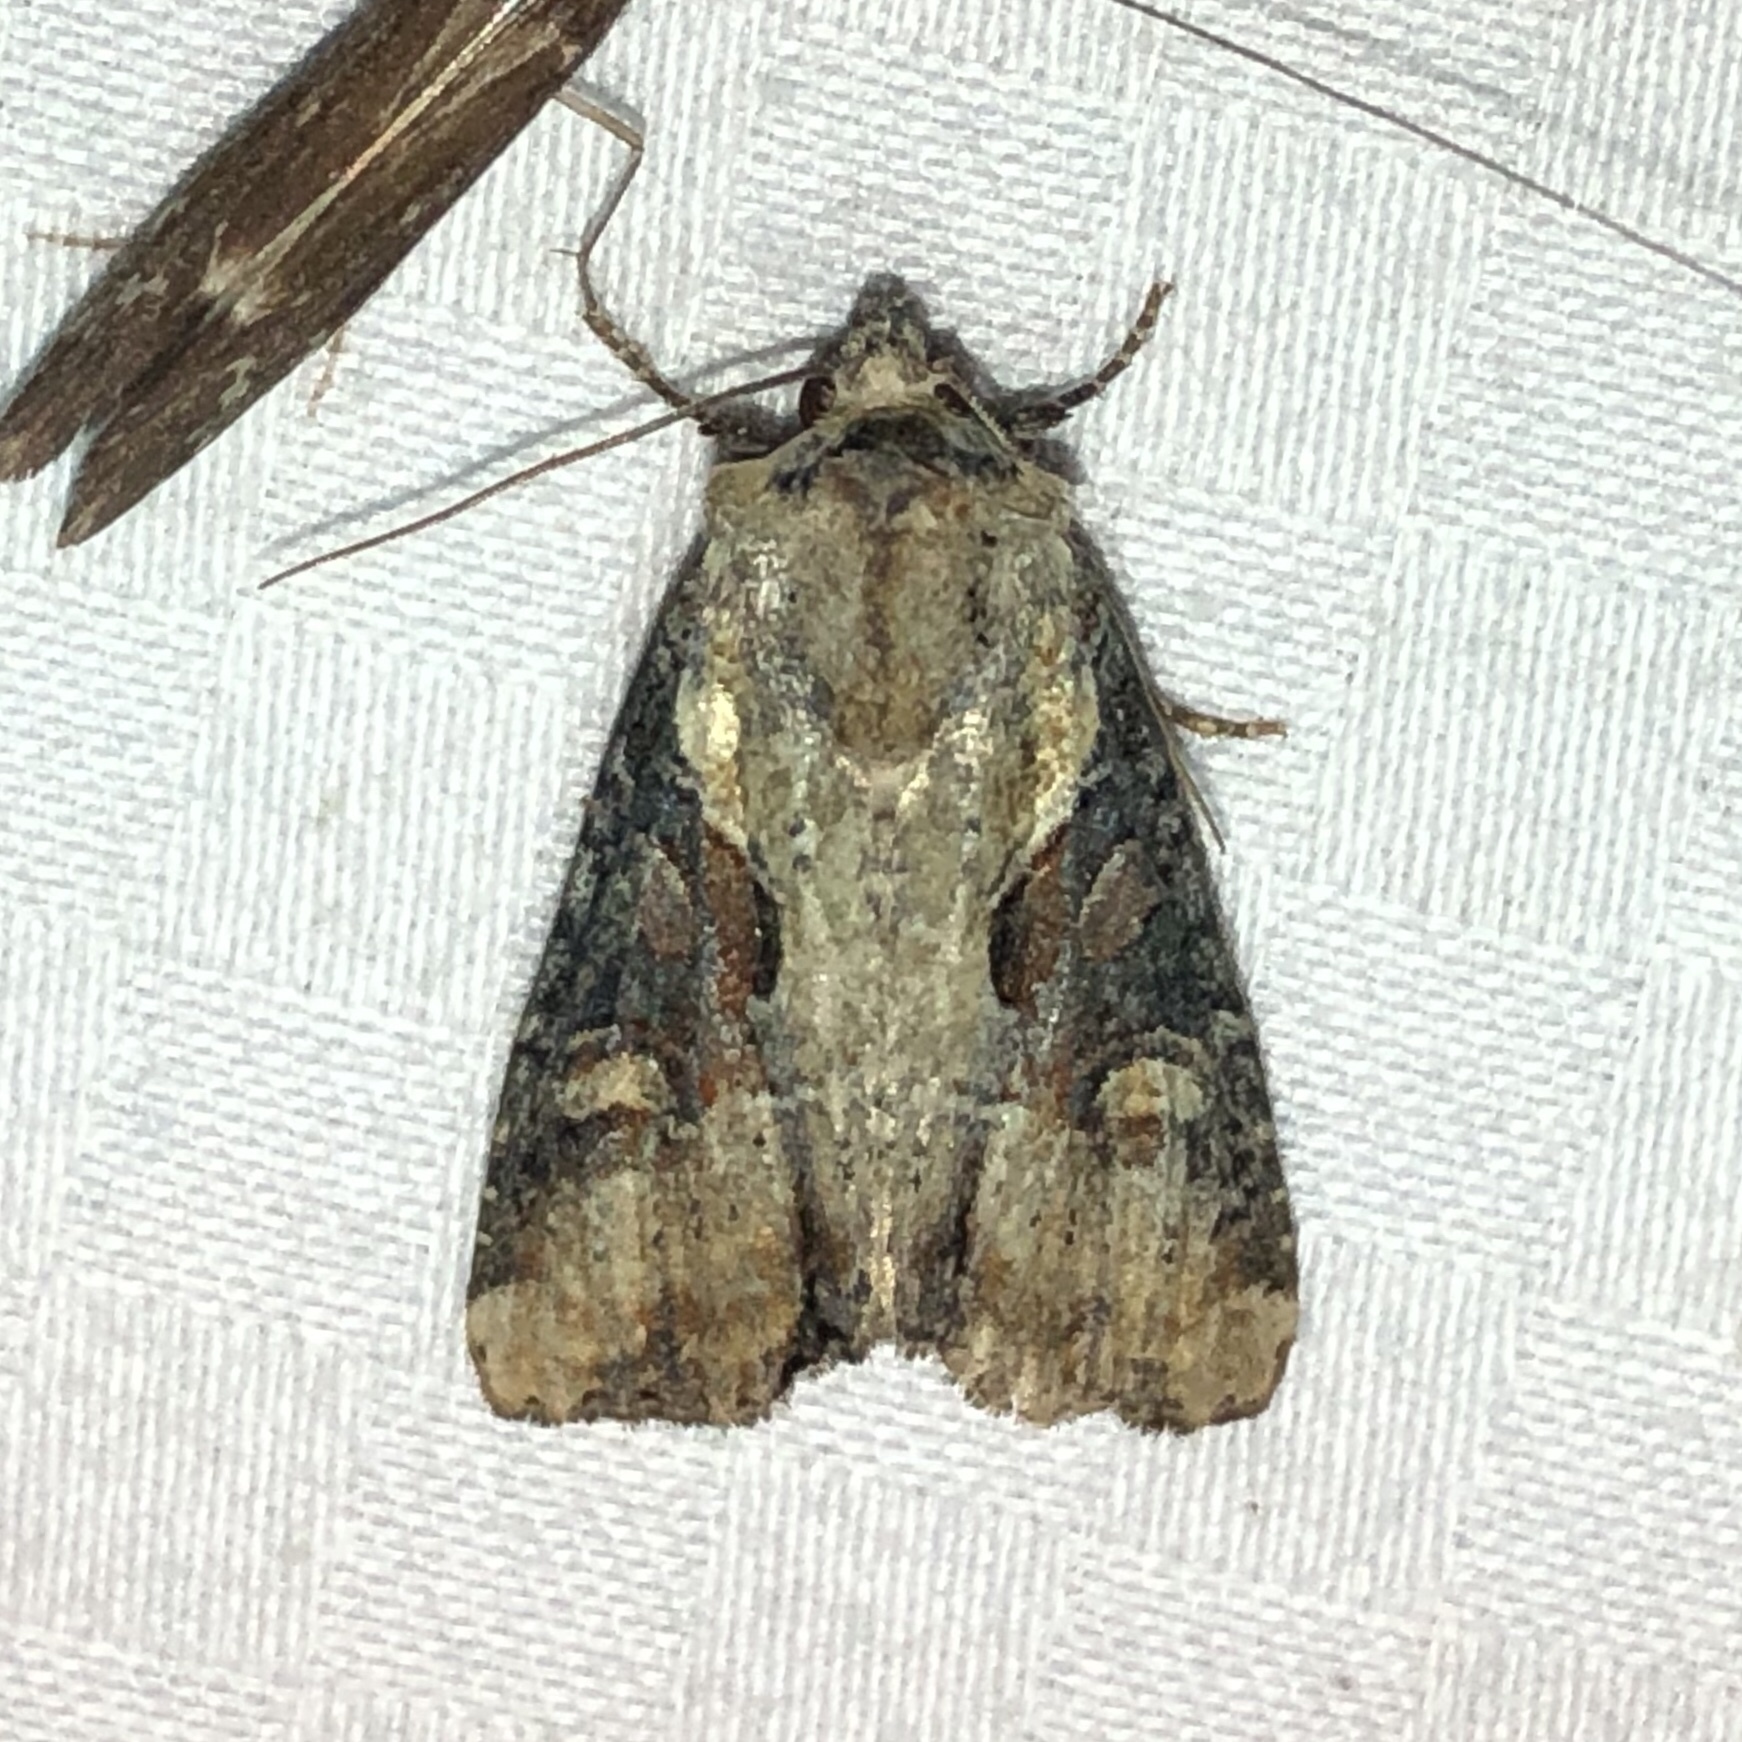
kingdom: Animalia
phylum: Arthropoda
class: Insecta
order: Lepidoptera
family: Noctuidae
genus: Lateroligia
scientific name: Lateroligia ophiogramma
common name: Double lobed
